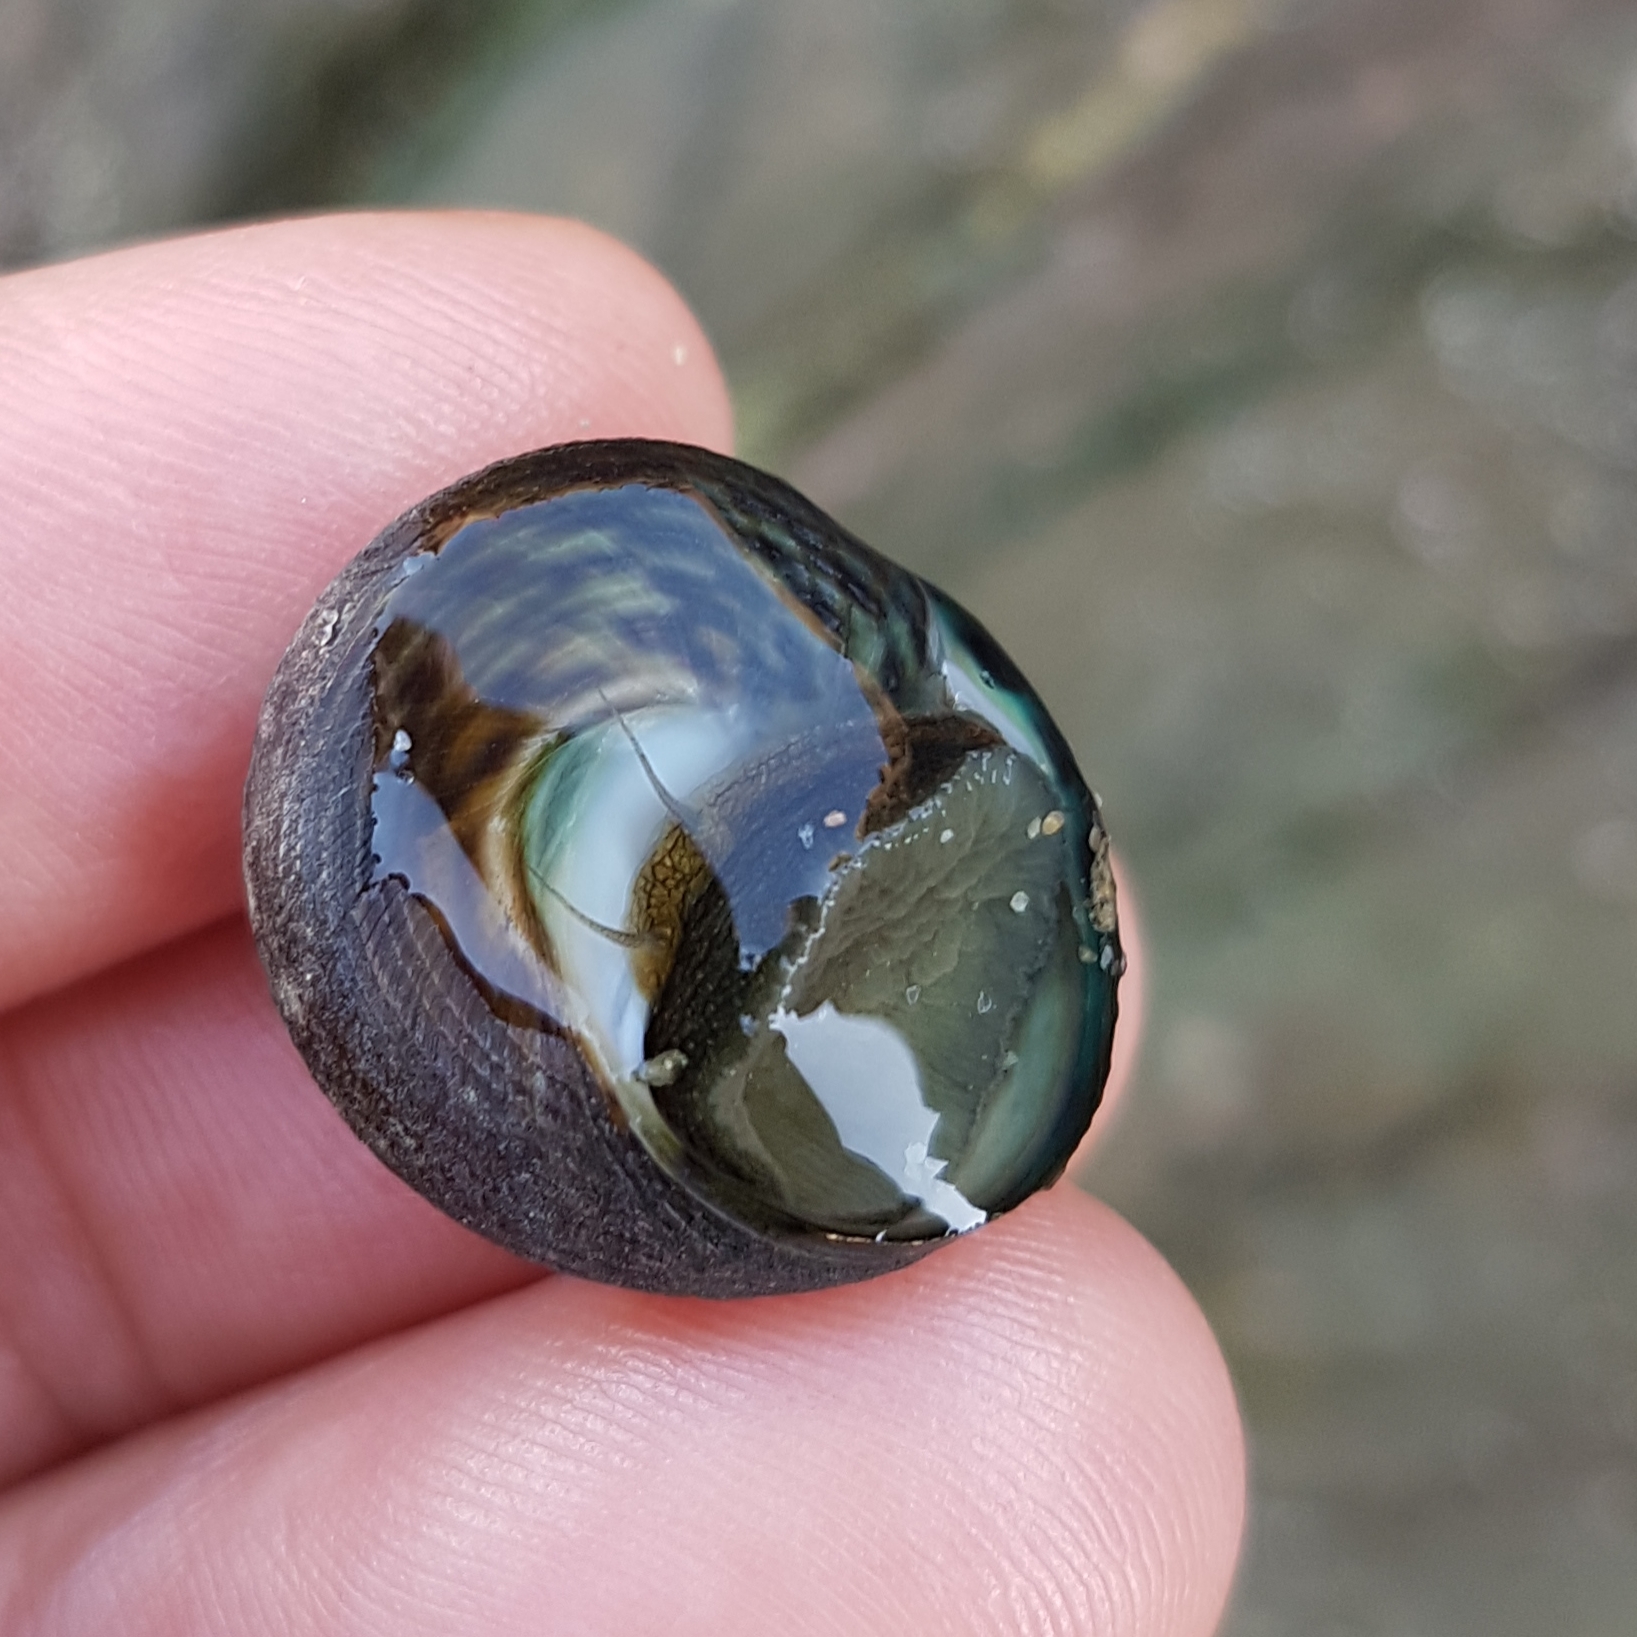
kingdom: Animalia
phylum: Mollusca
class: Gastropoda
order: Trochida
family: Trochidae
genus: Phorcus
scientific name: Phorcus sauciatus
